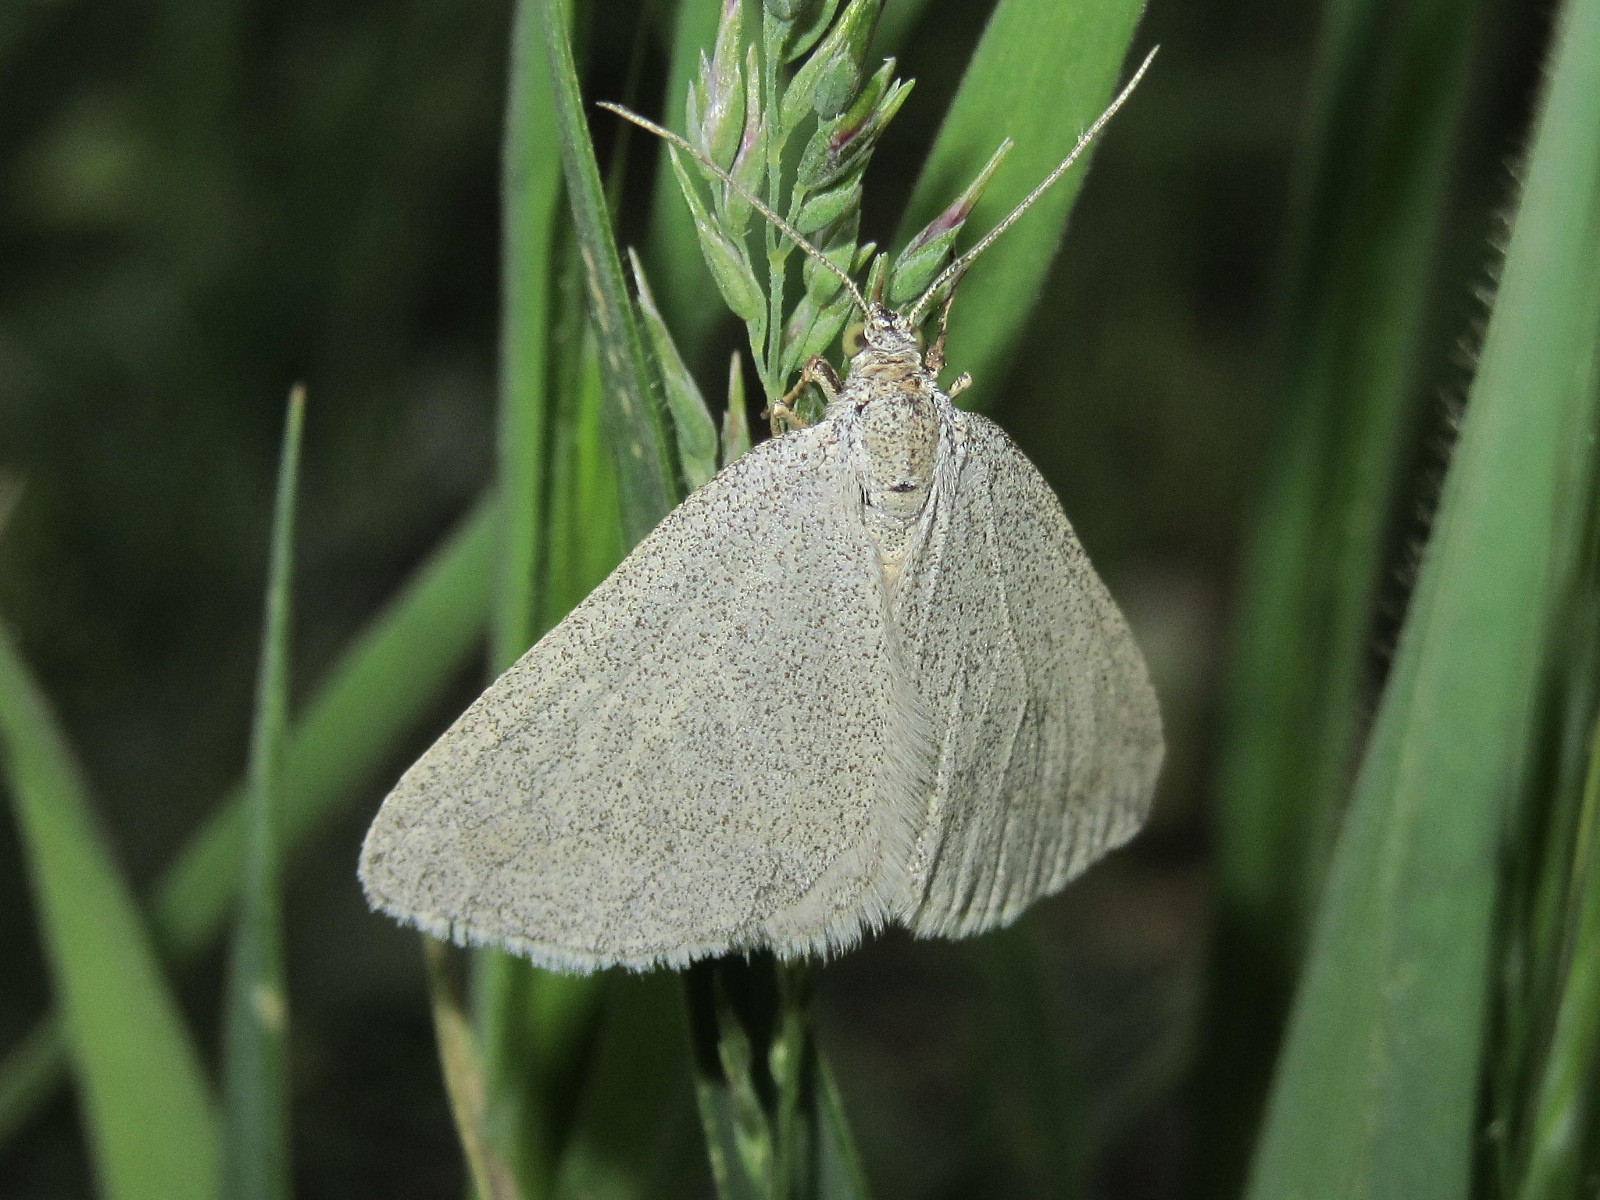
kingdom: Animalia
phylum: Arthropoda
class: Insecta
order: Lepidoptera
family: Geometridae
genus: Lithostege
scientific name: Lithostege griseata
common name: Grey carpet
